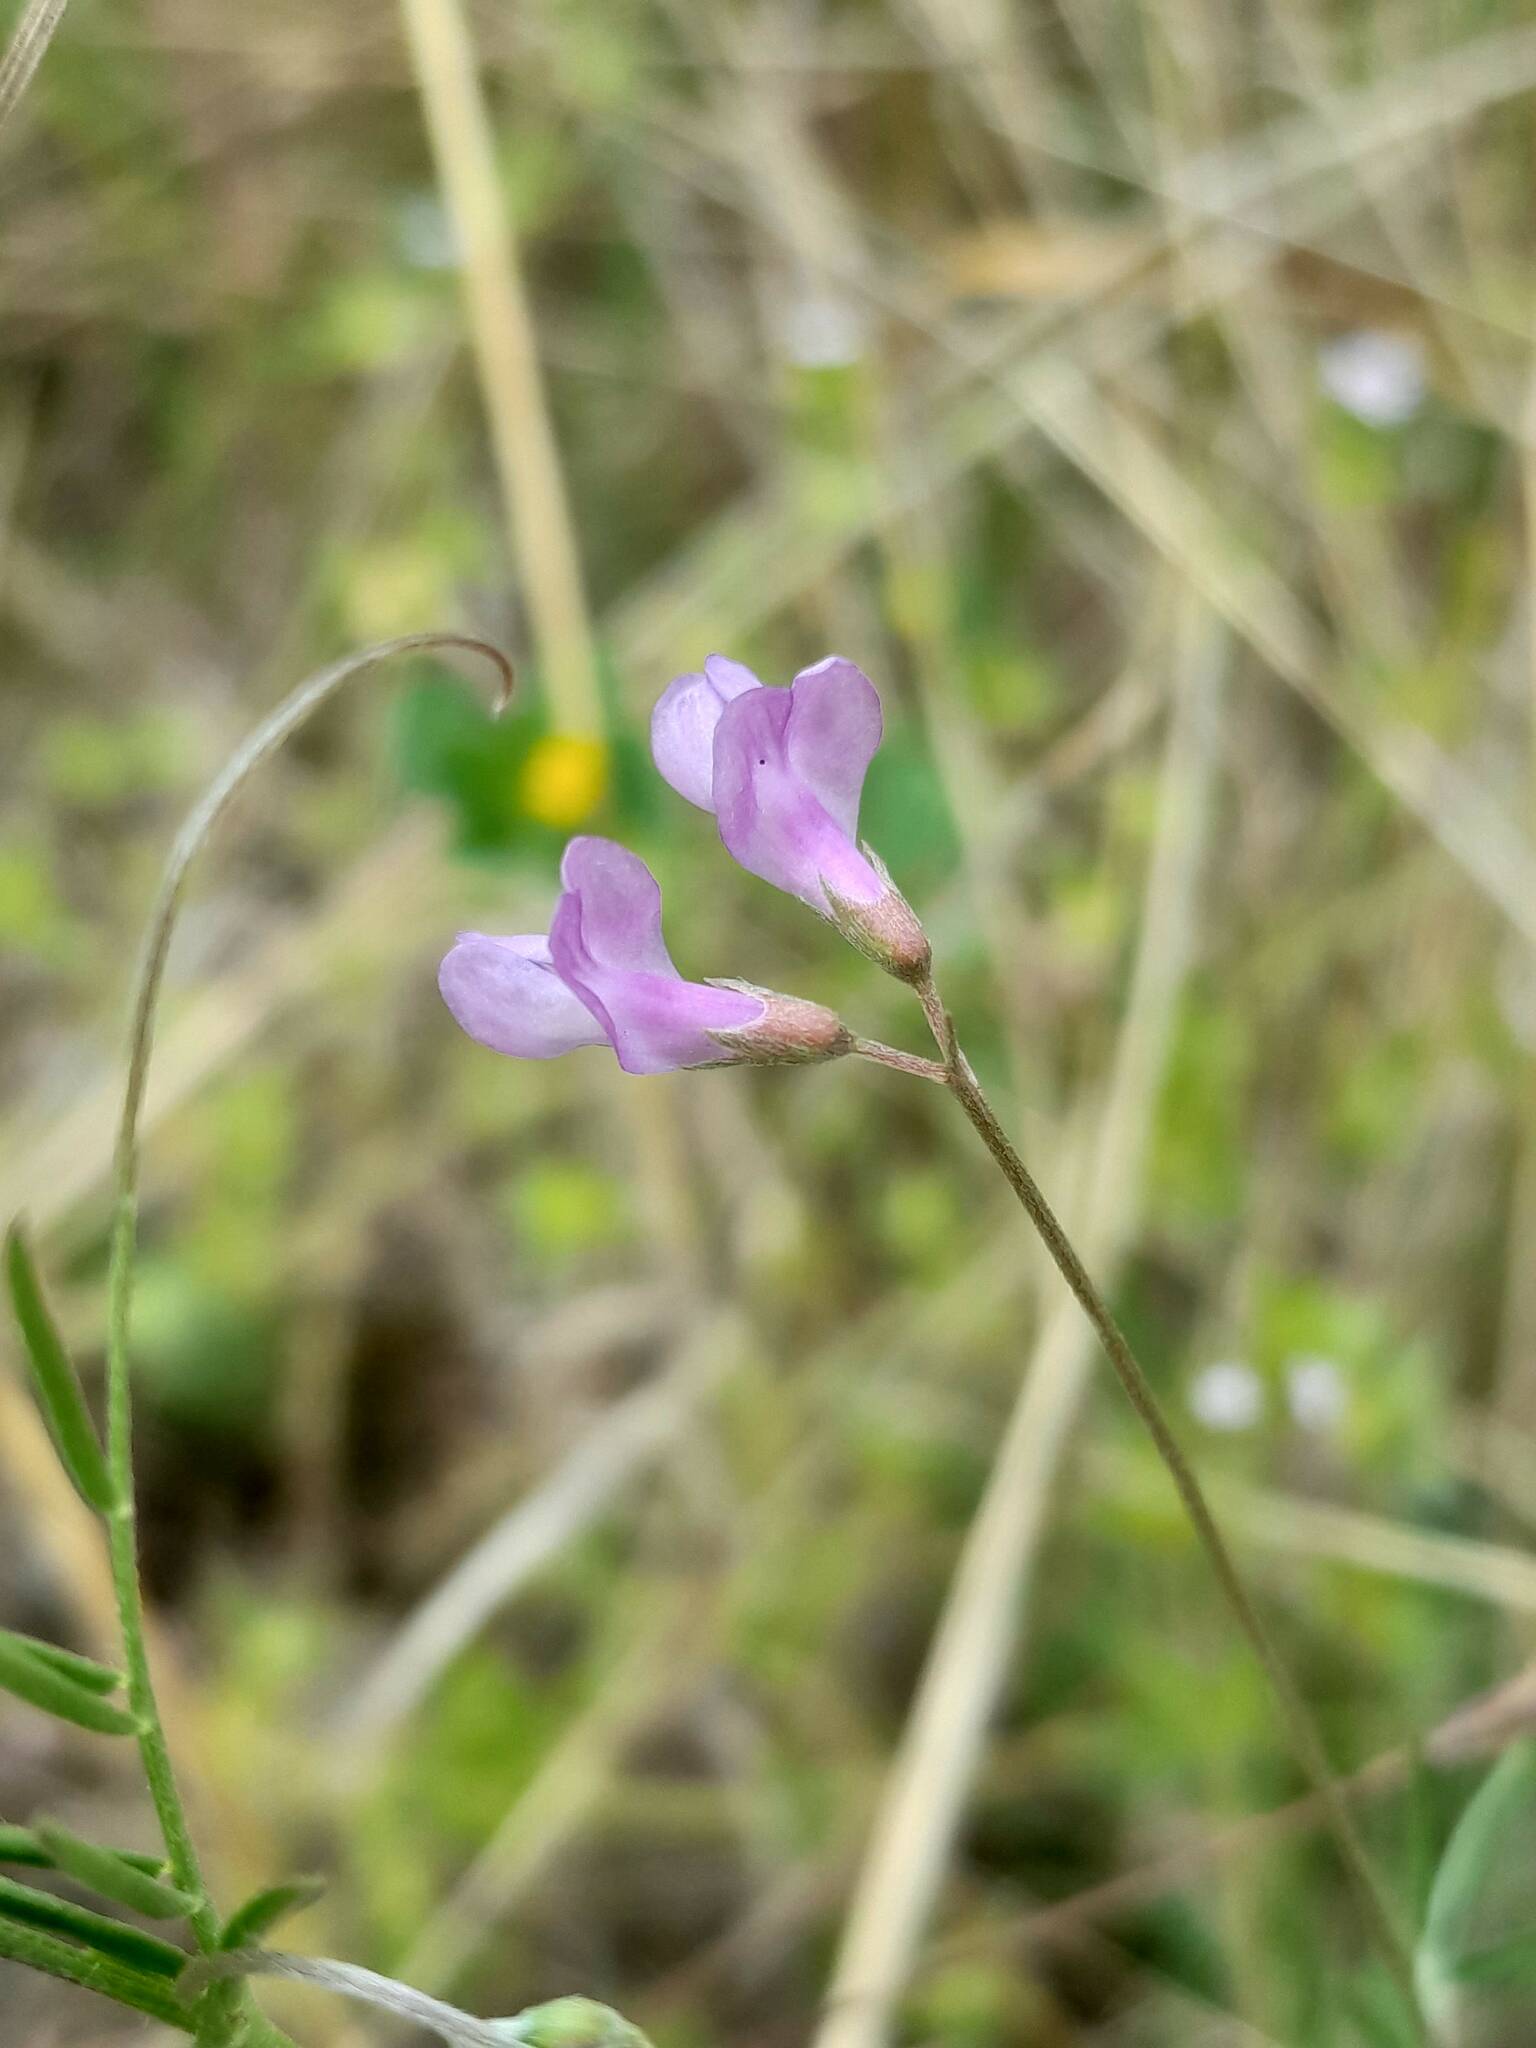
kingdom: Plantae
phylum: Tracheophyta
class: Magnoliopsida
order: Fabales
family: Fabaceae
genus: Vicia
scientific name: Vicia parviflora
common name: Slender tare
